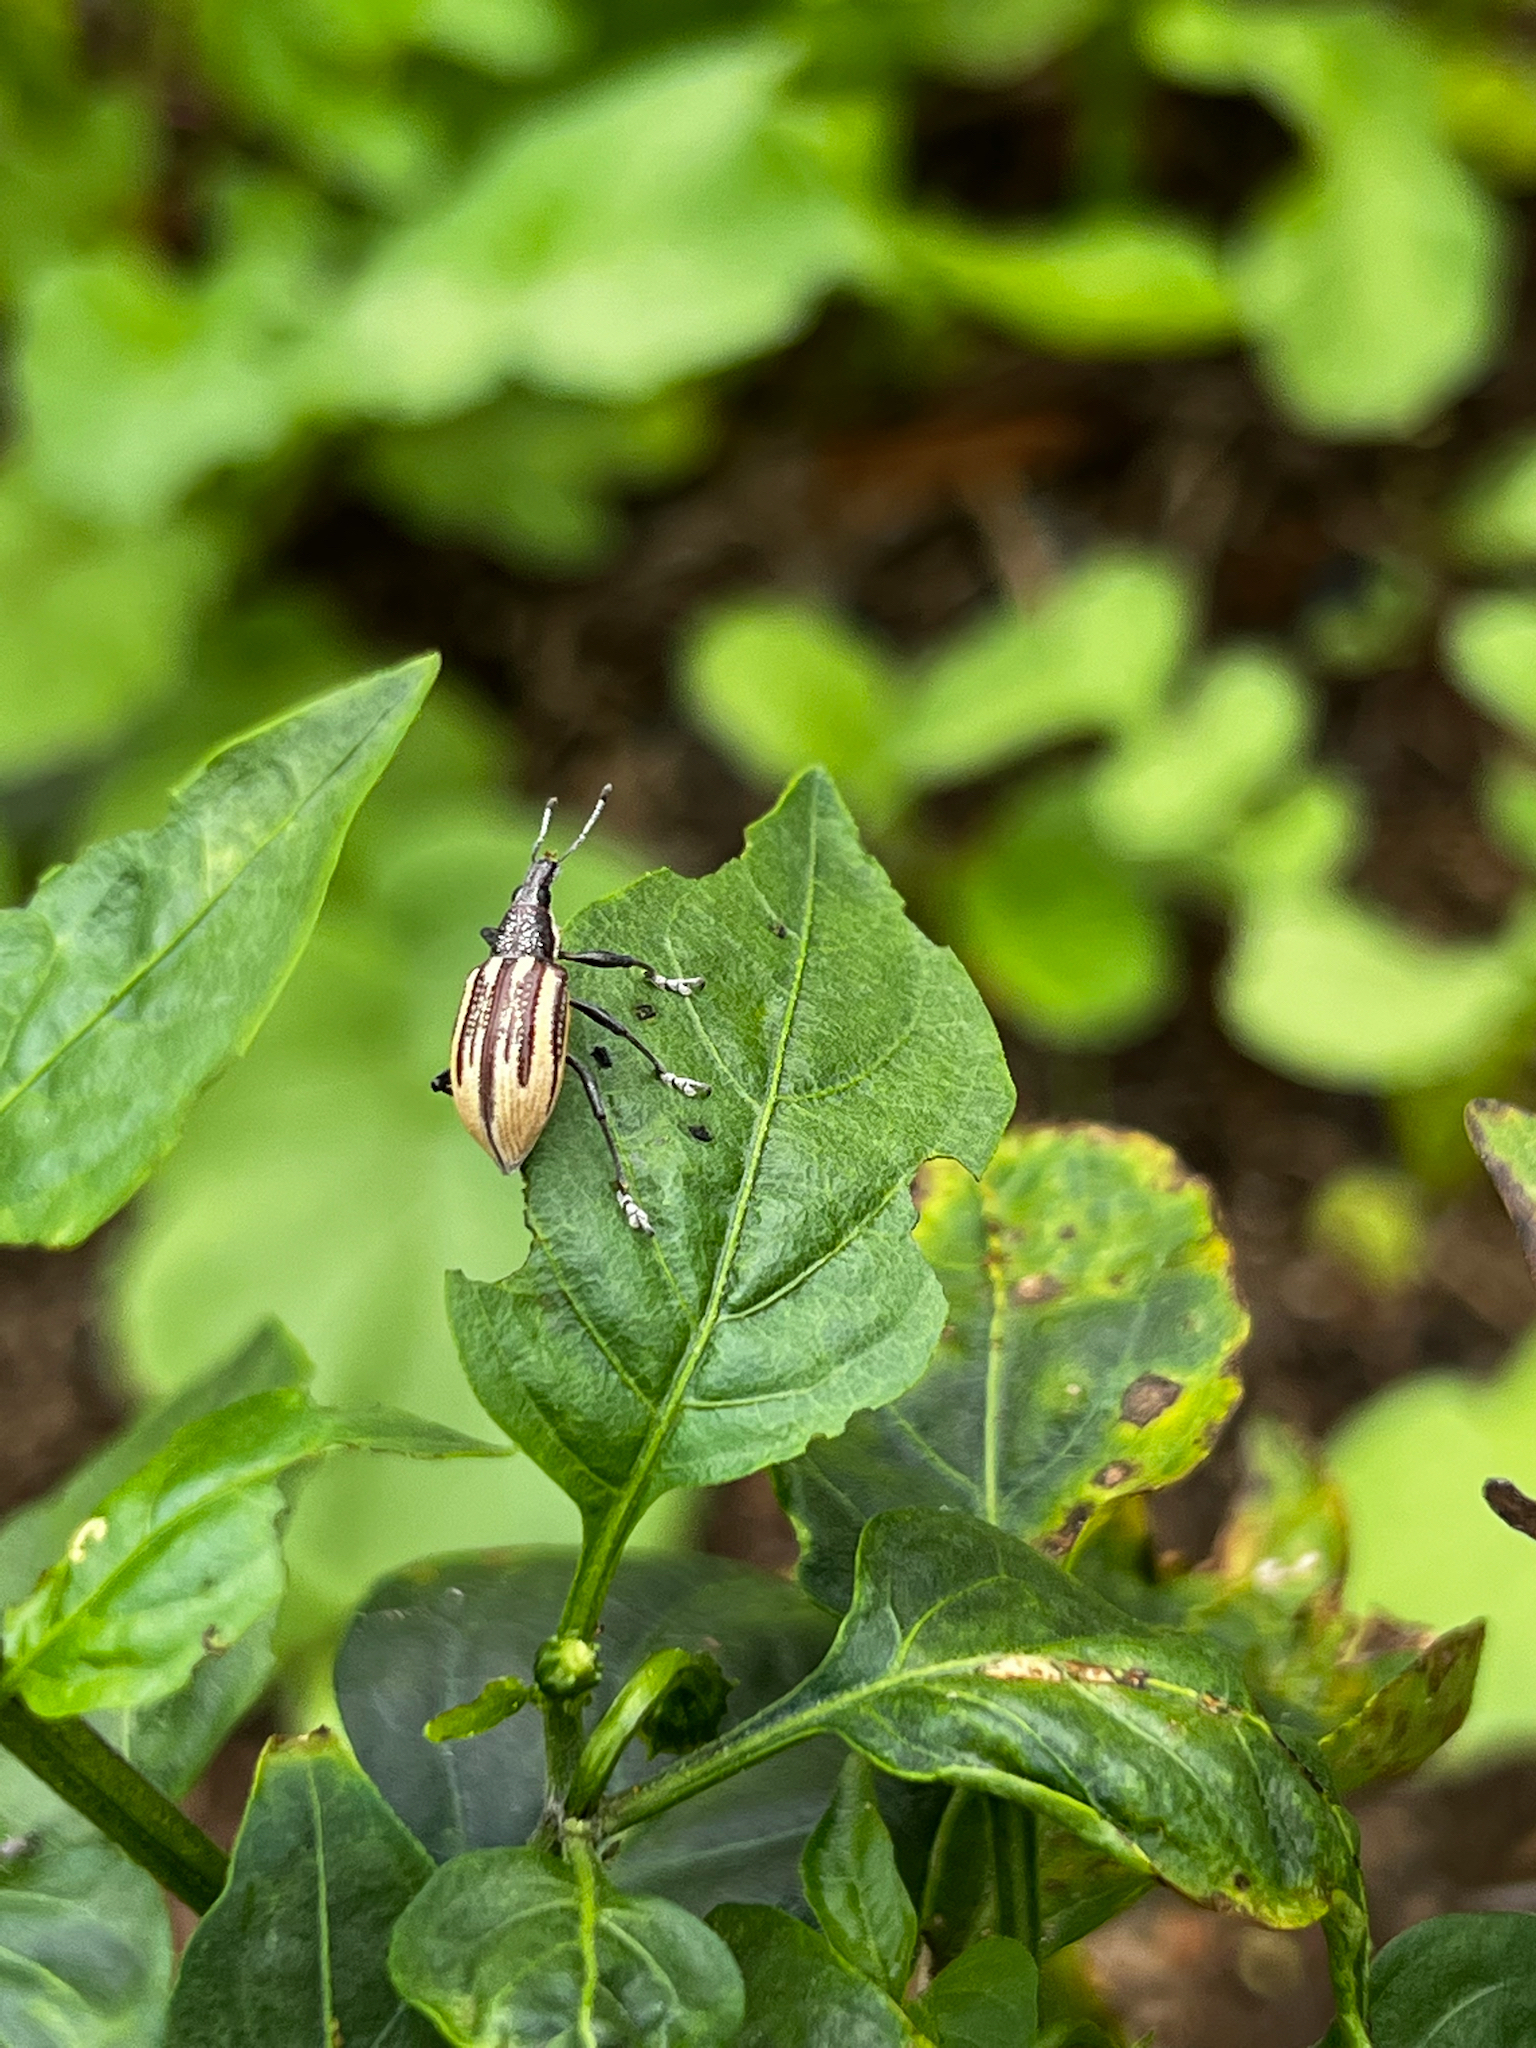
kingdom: Animalia
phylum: Arthropoda
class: Insecta
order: Coleoptera
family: Curculionidae
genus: Diaprepes
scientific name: Diaprepes abbreviatus
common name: Root weevil
